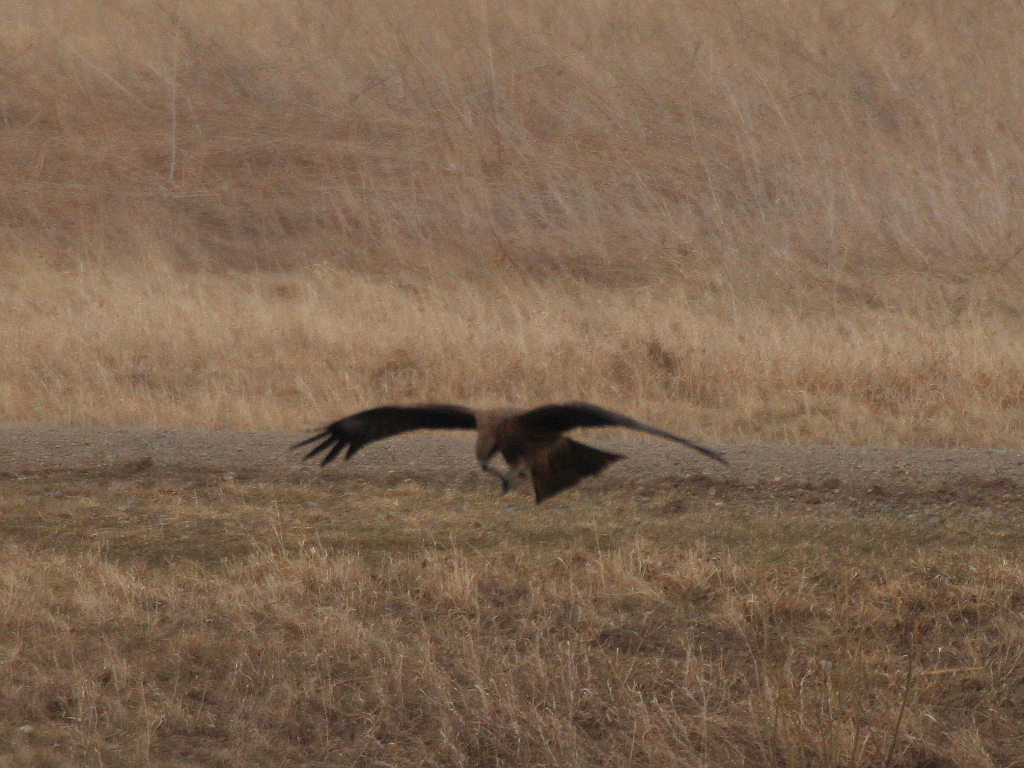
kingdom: Animalia
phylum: Chordata
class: Aves
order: Accipitriformes
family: Accipitridae
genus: Milvus
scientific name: Milvus migrans
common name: Black kite
